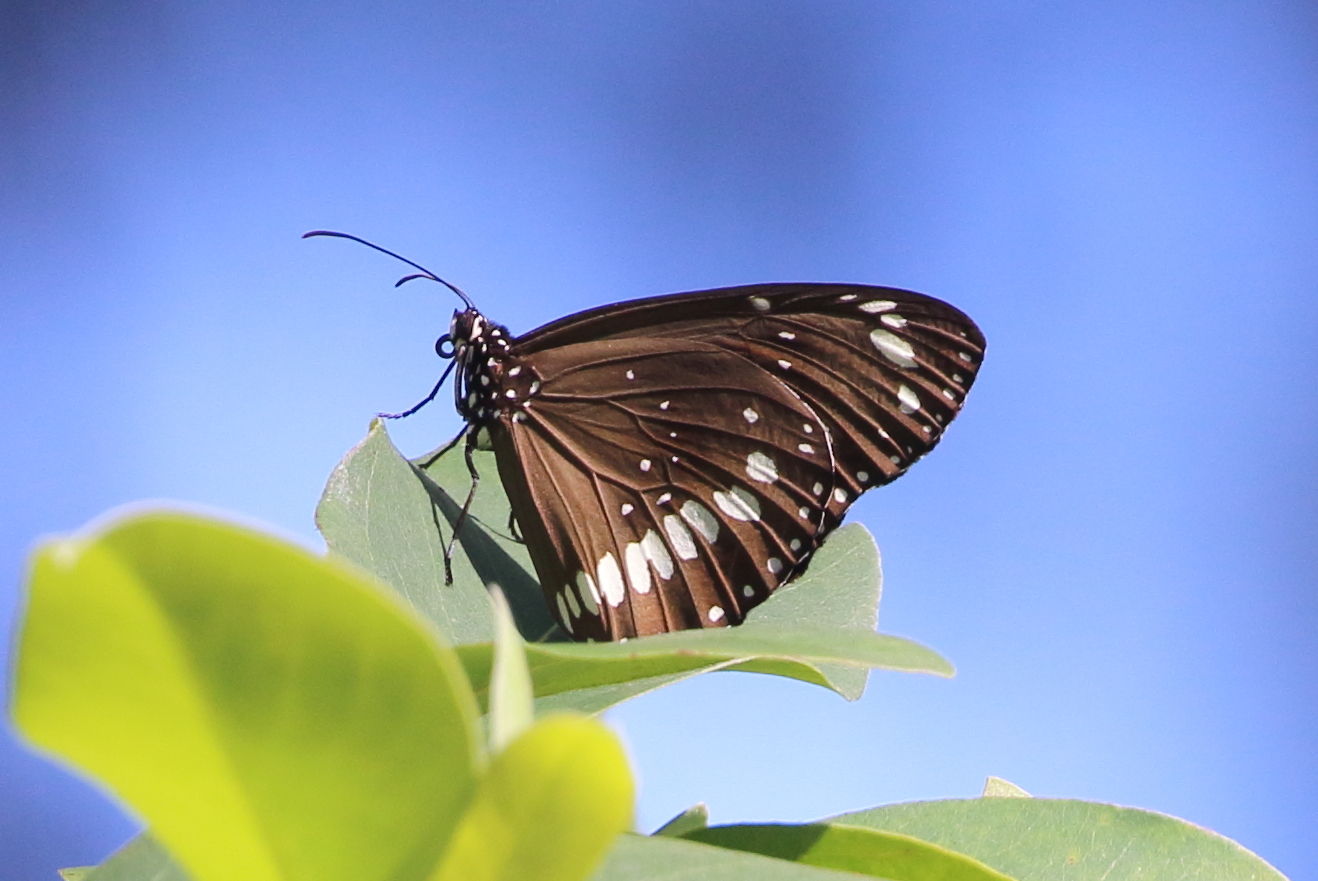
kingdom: Animalia
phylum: Arthropoda
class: Insecta
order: Lepidoptera
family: Nymphalidae
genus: Euploea
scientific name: Euploea core
